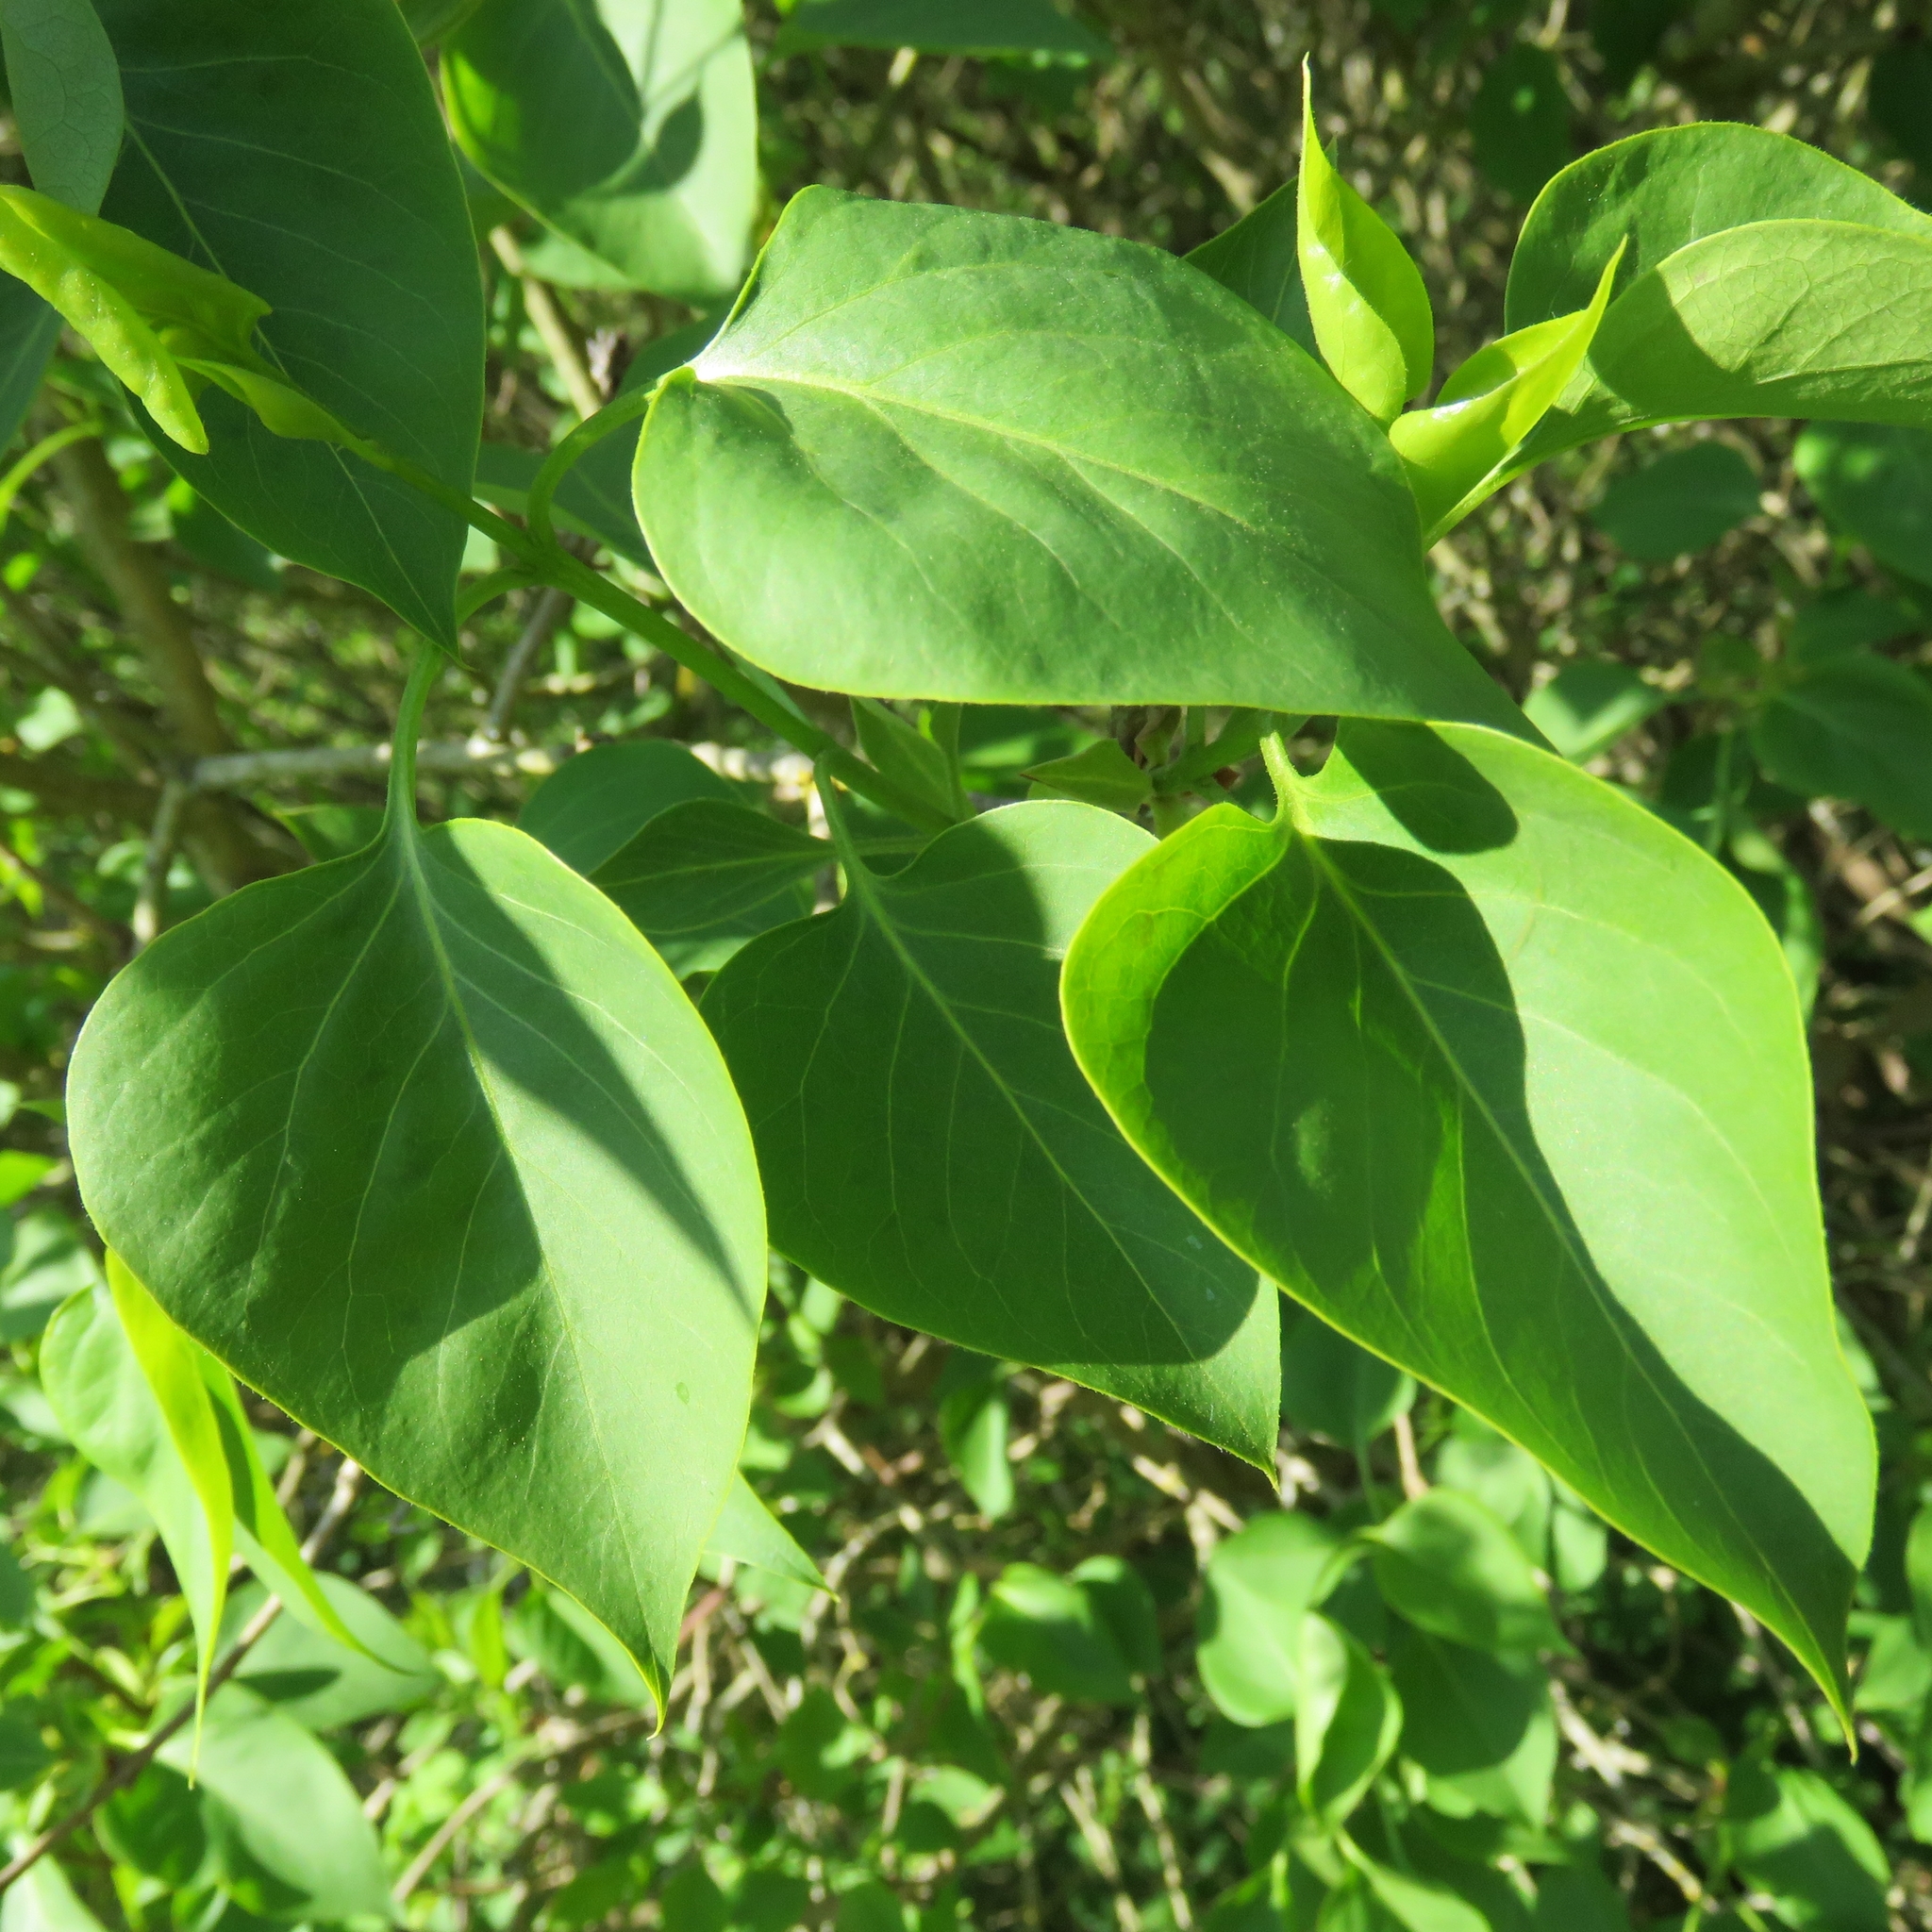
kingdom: Plantae
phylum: Tracheophyta
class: Magnoliopsida
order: Lamiales
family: Oleaceae
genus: Syringa
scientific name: Syringa vulgaris
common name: Common lilac
